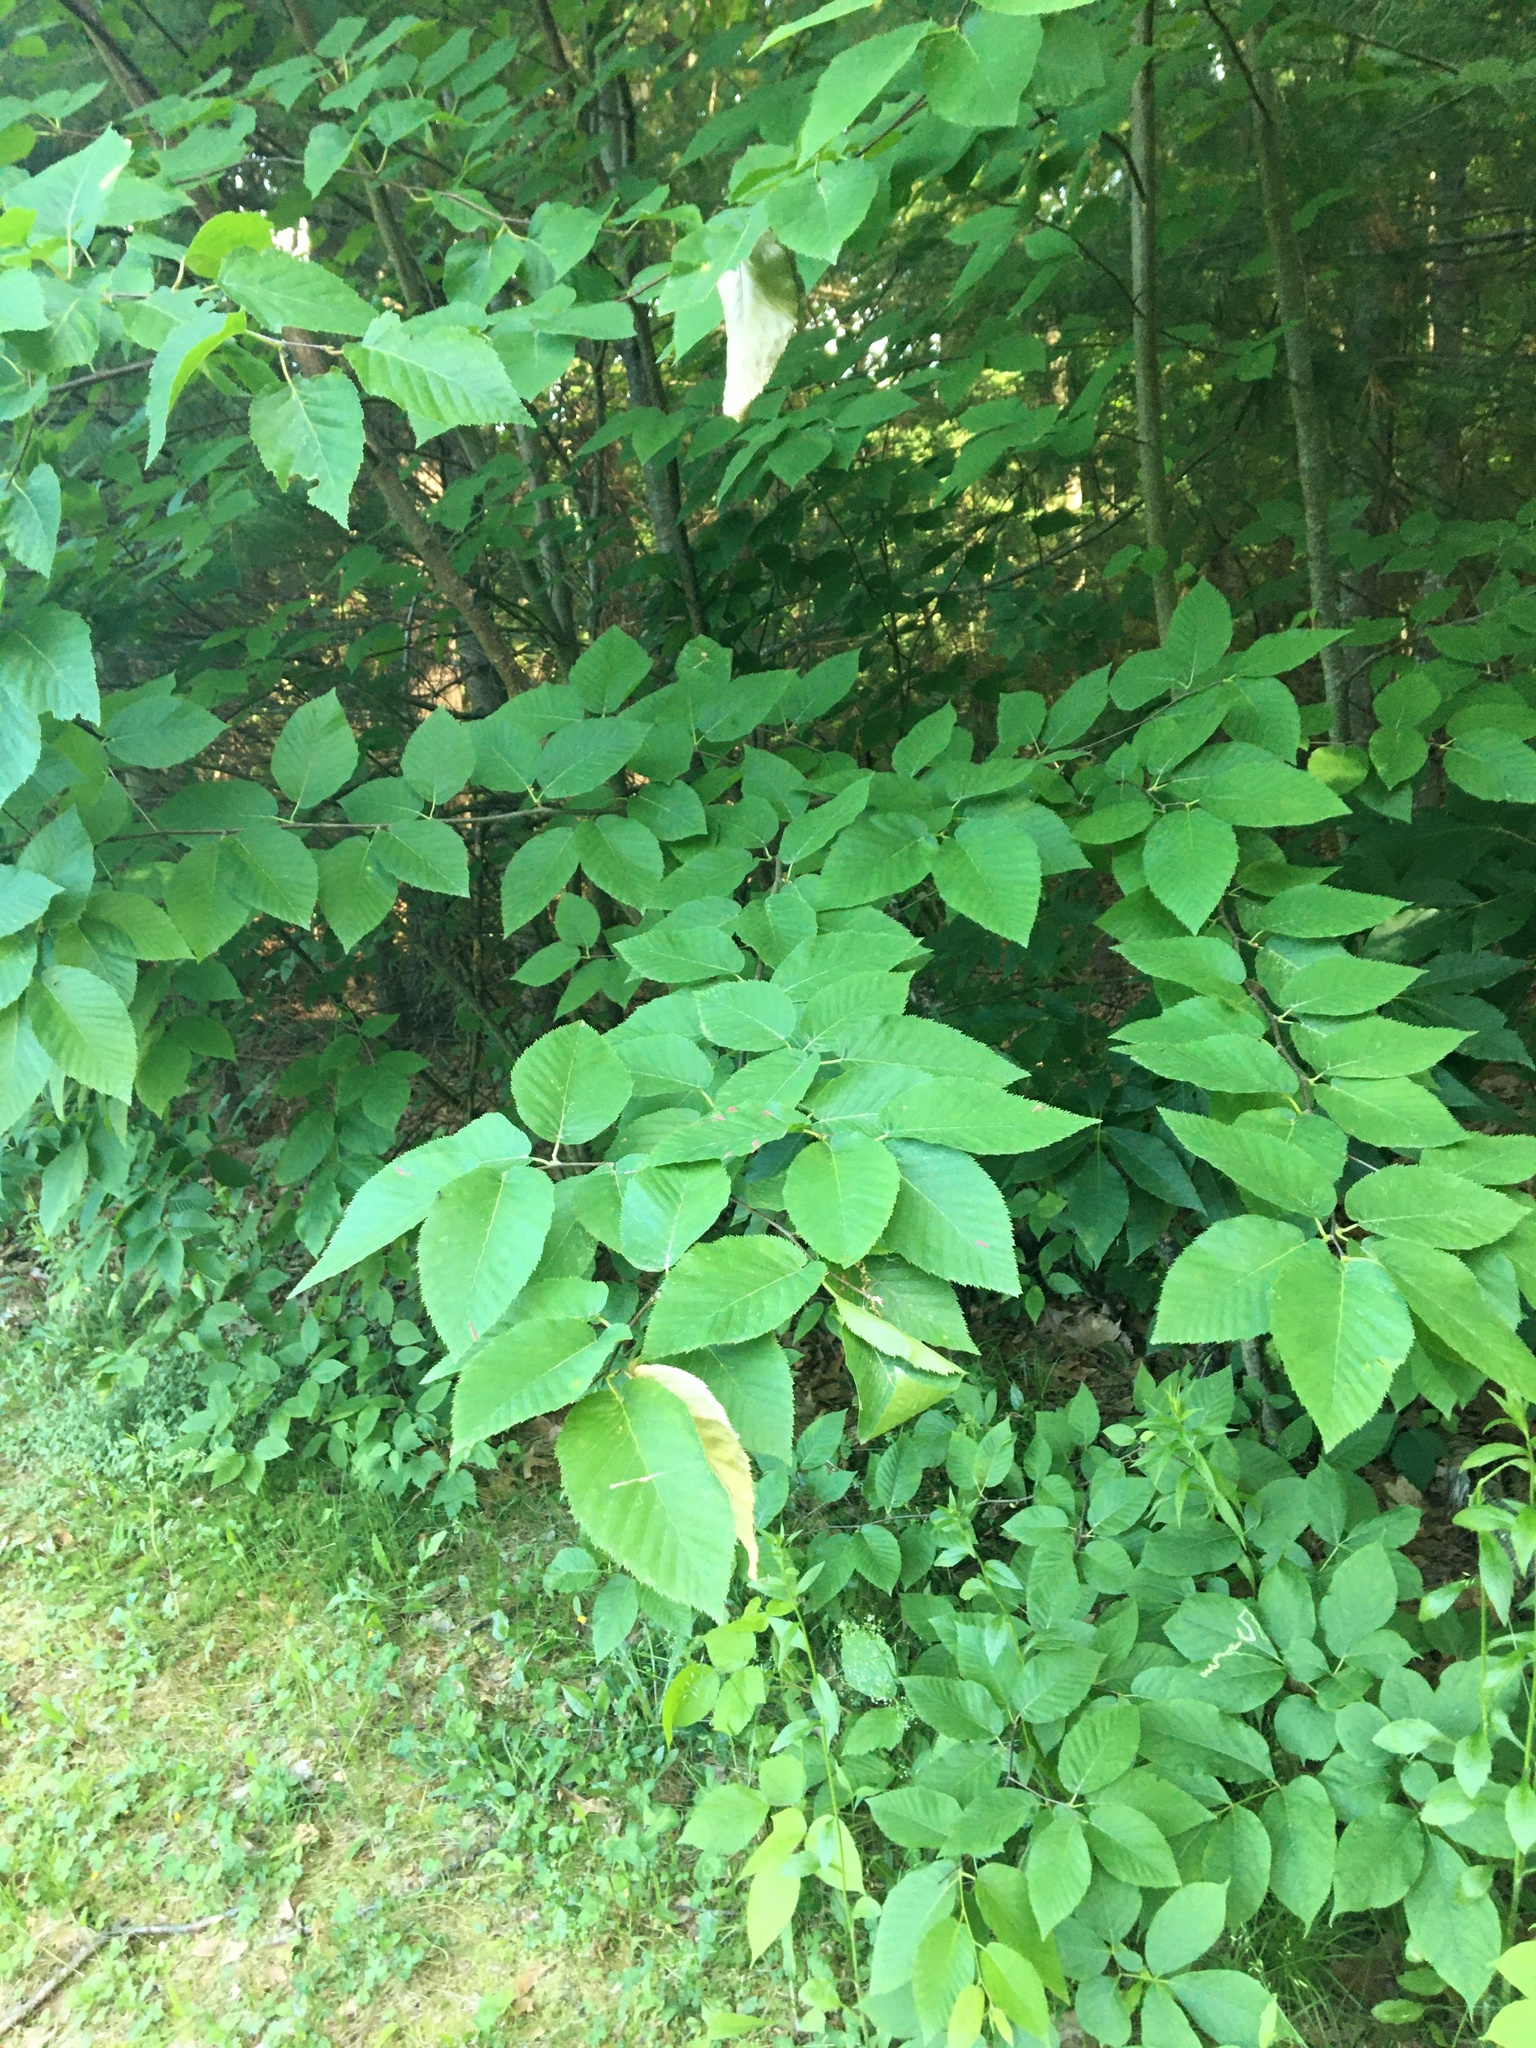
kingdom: Plantae
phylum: Tracheophyta
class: Magnoliopsida
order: Fagales
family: Fagaceae
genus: Fagus
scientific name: Fagus grandifolia
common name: American beech
